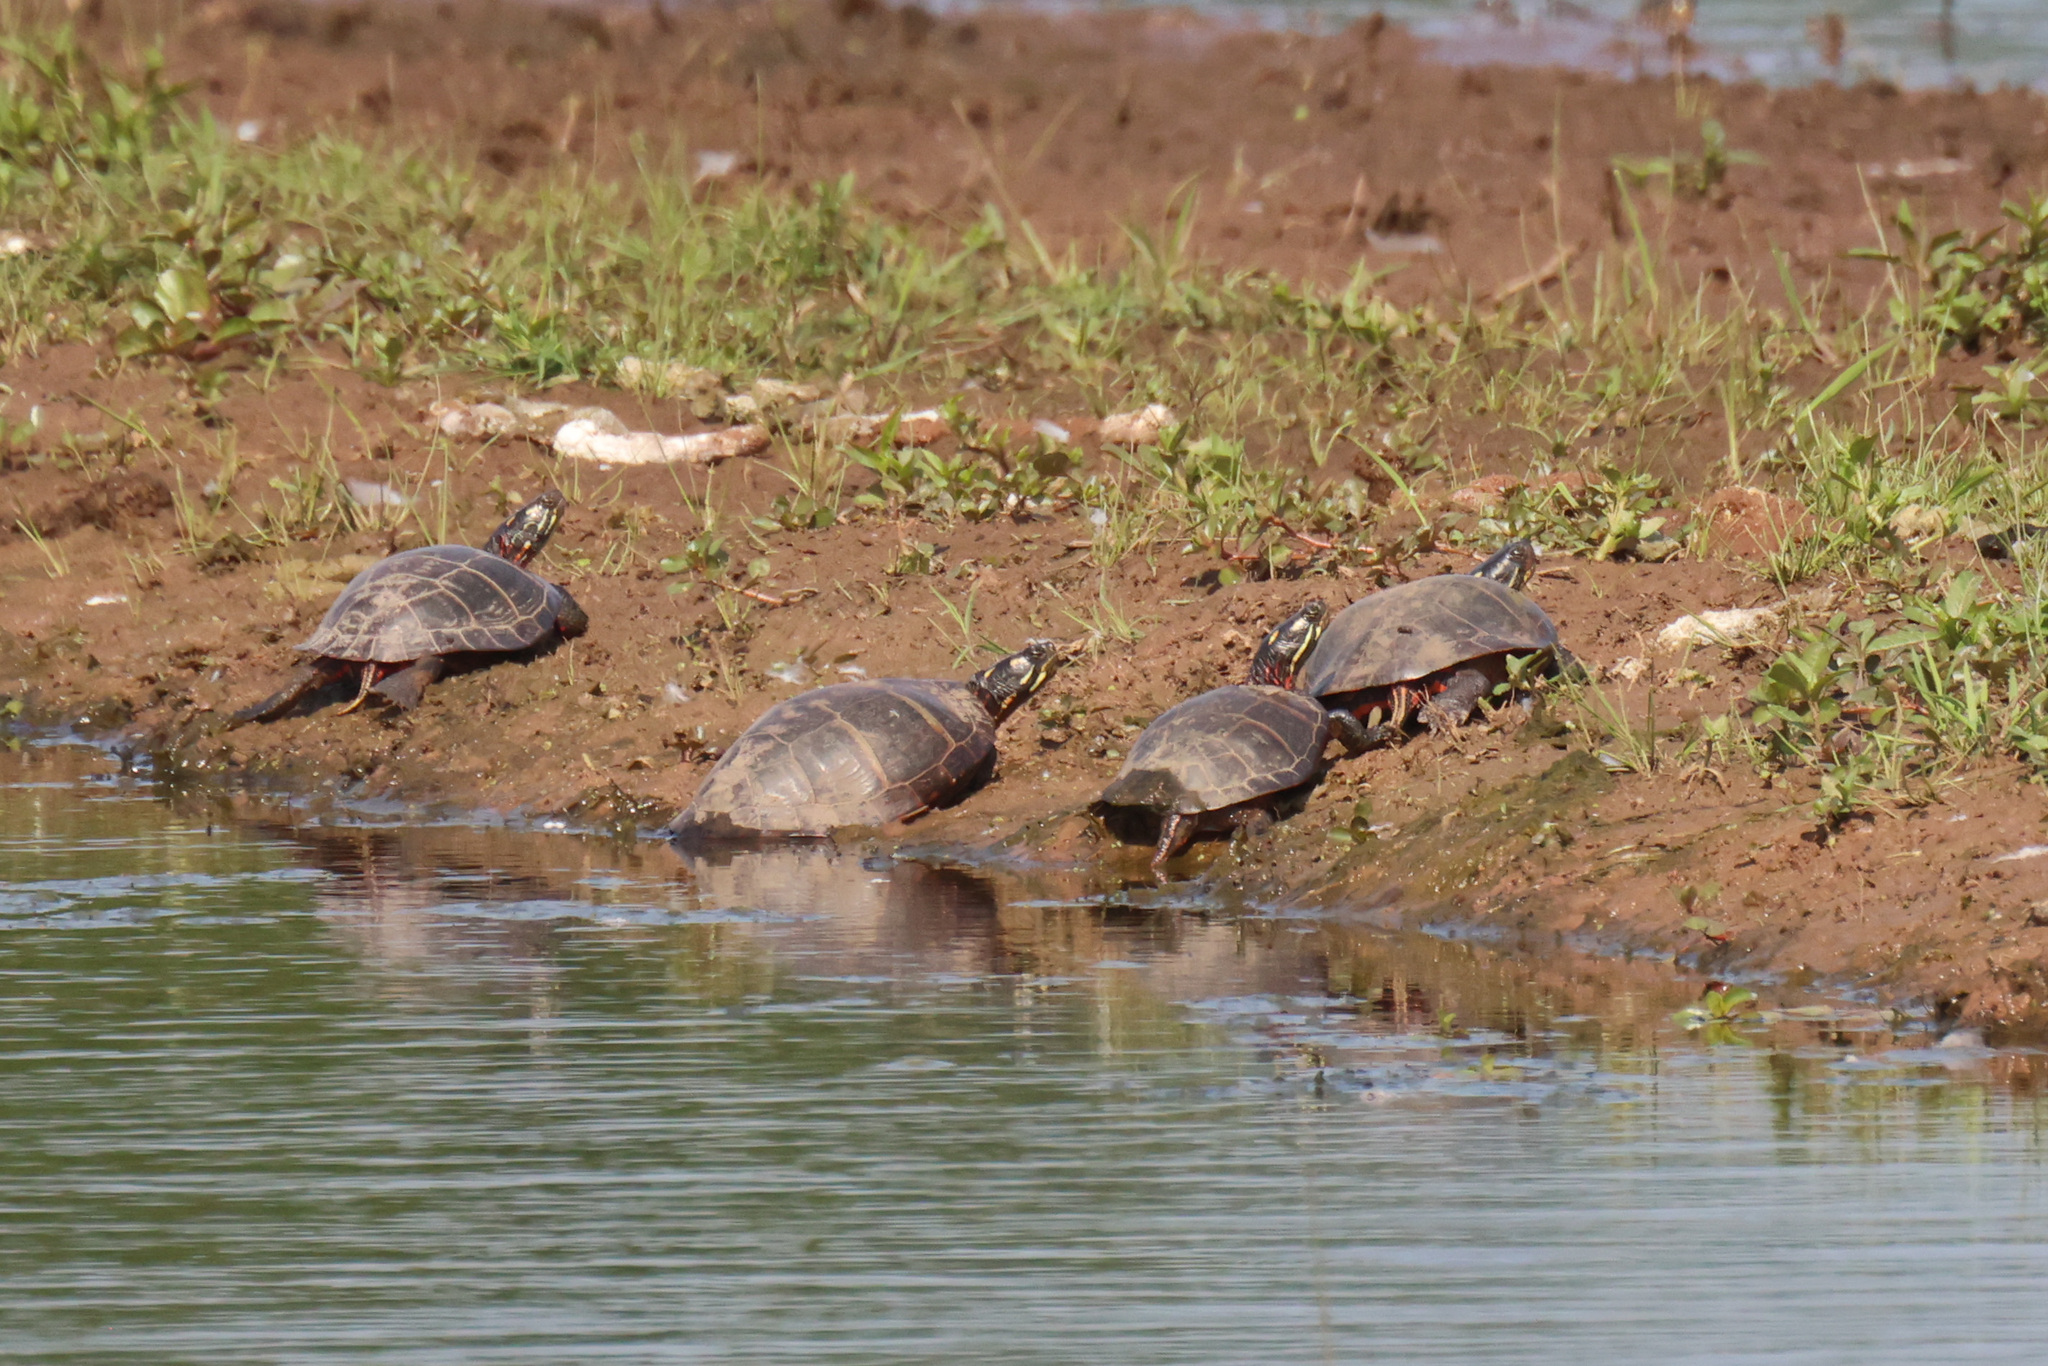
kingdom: Animalia
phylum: Chordata
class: Testudines
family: Emydidae
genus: Chrysemys
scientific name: Chrysemys picta
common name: Painted turtle
